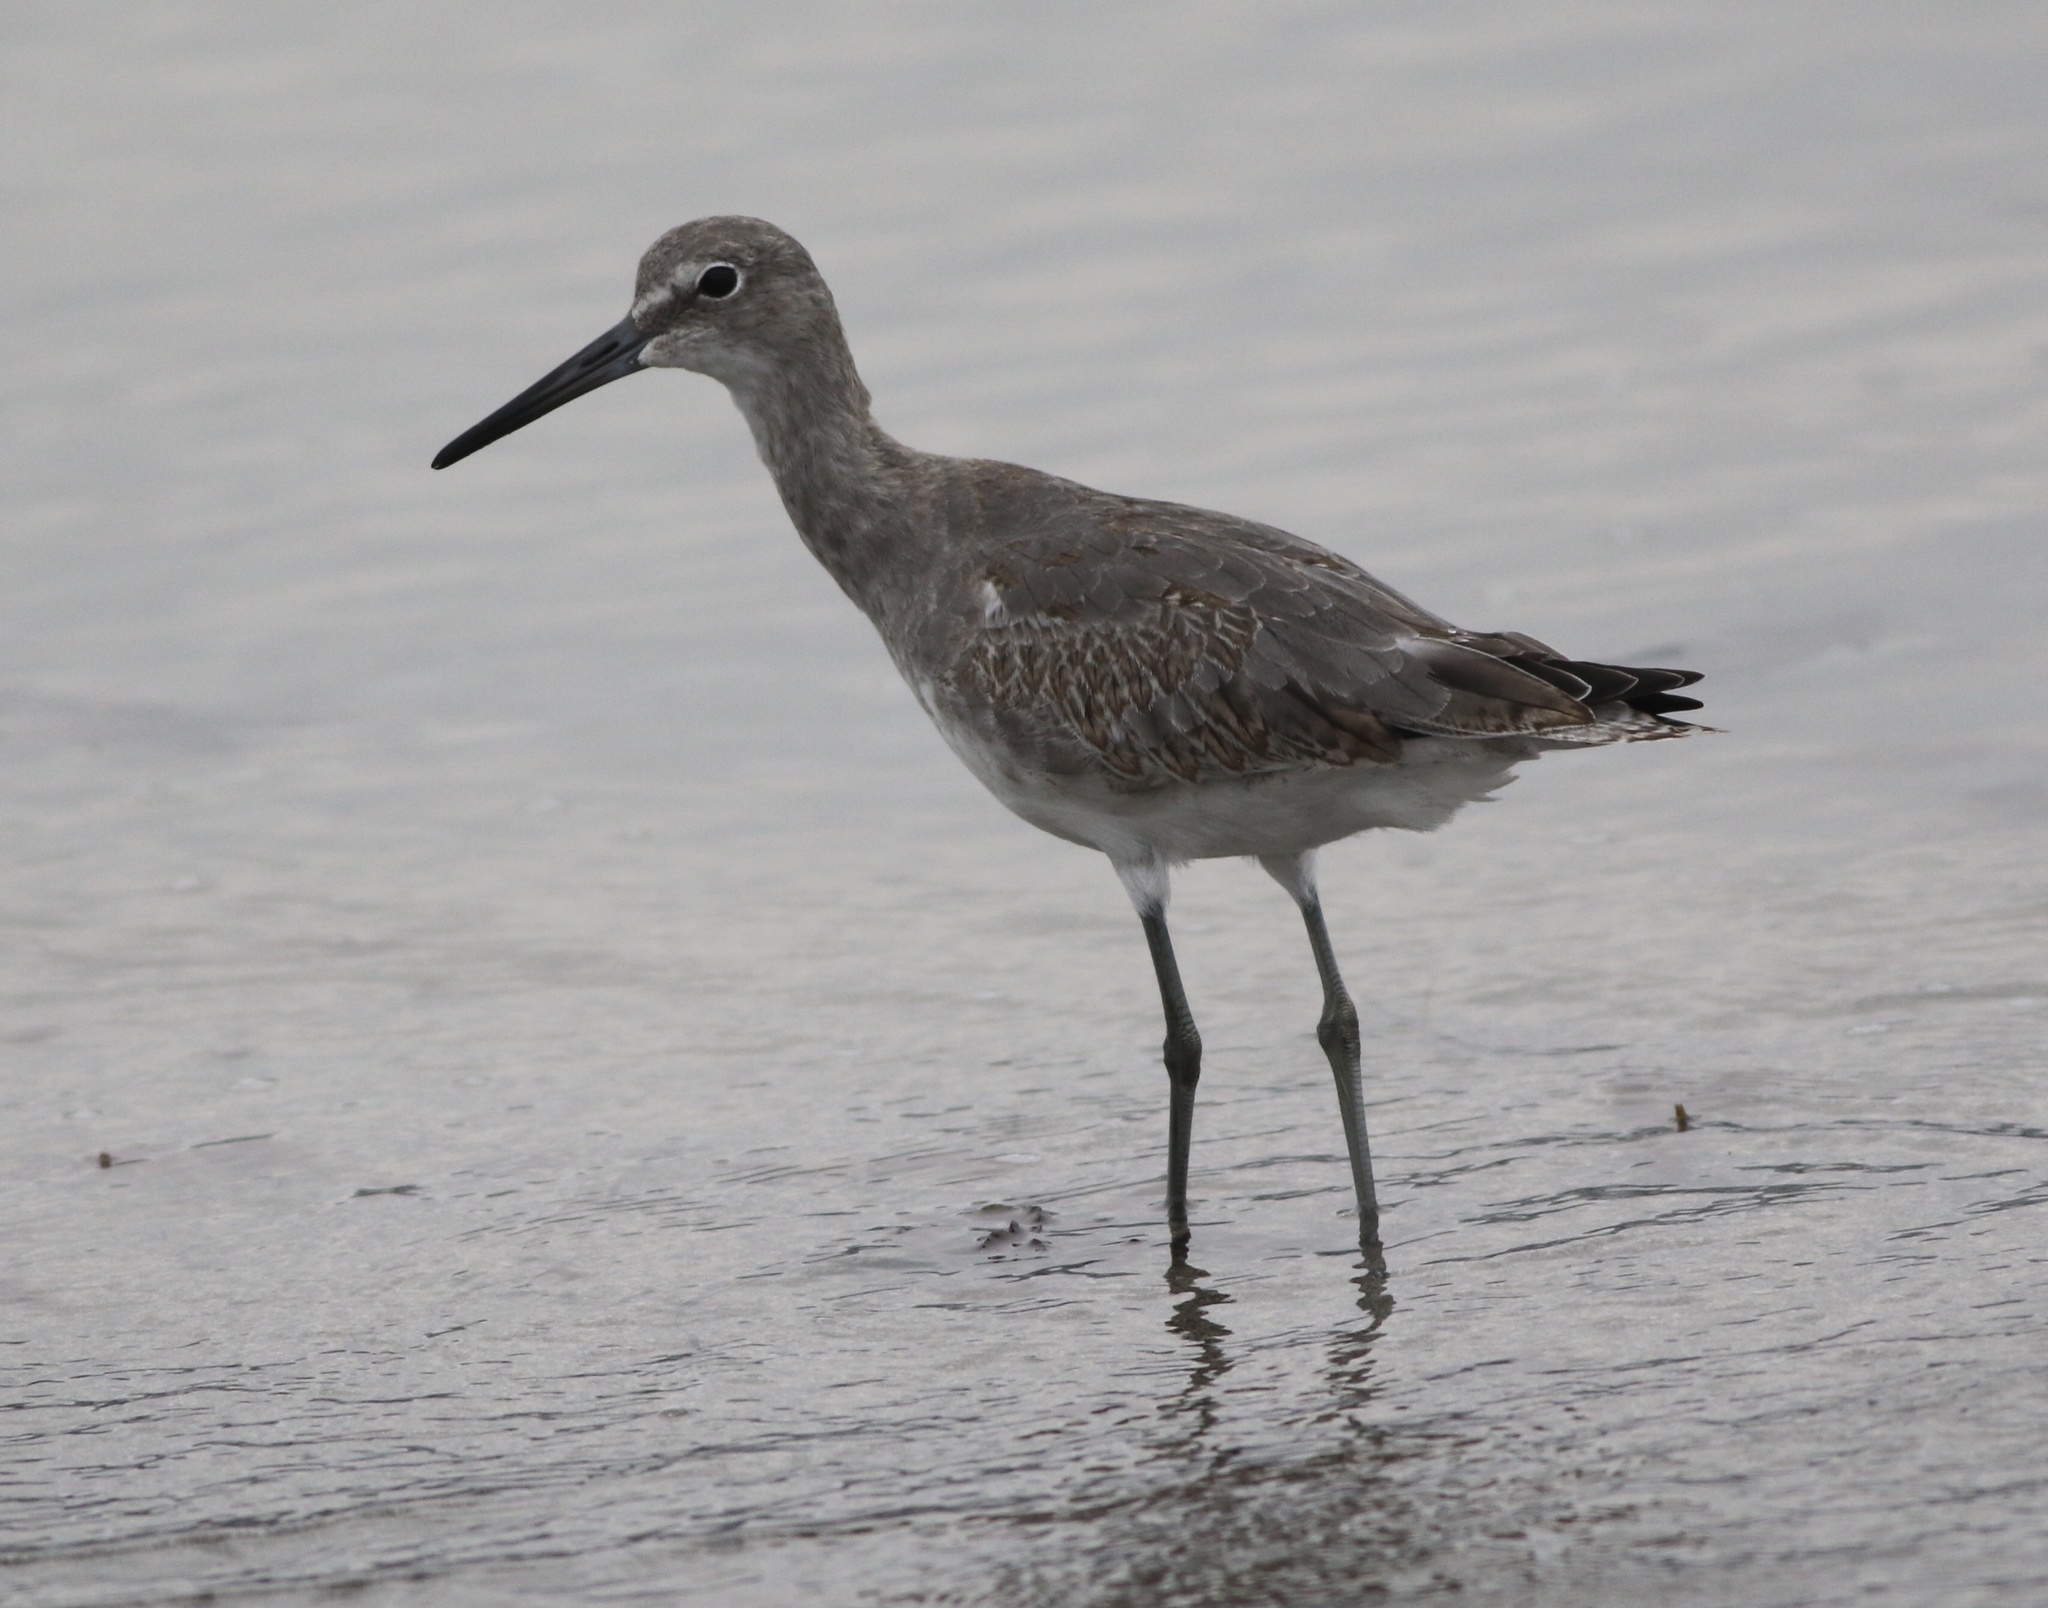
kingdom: Animalia
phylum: Chordata
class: Aves
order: Charadriiformes
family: Scolopacidae
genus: Tringa
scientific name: Tringa semipalmata
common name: Willet
